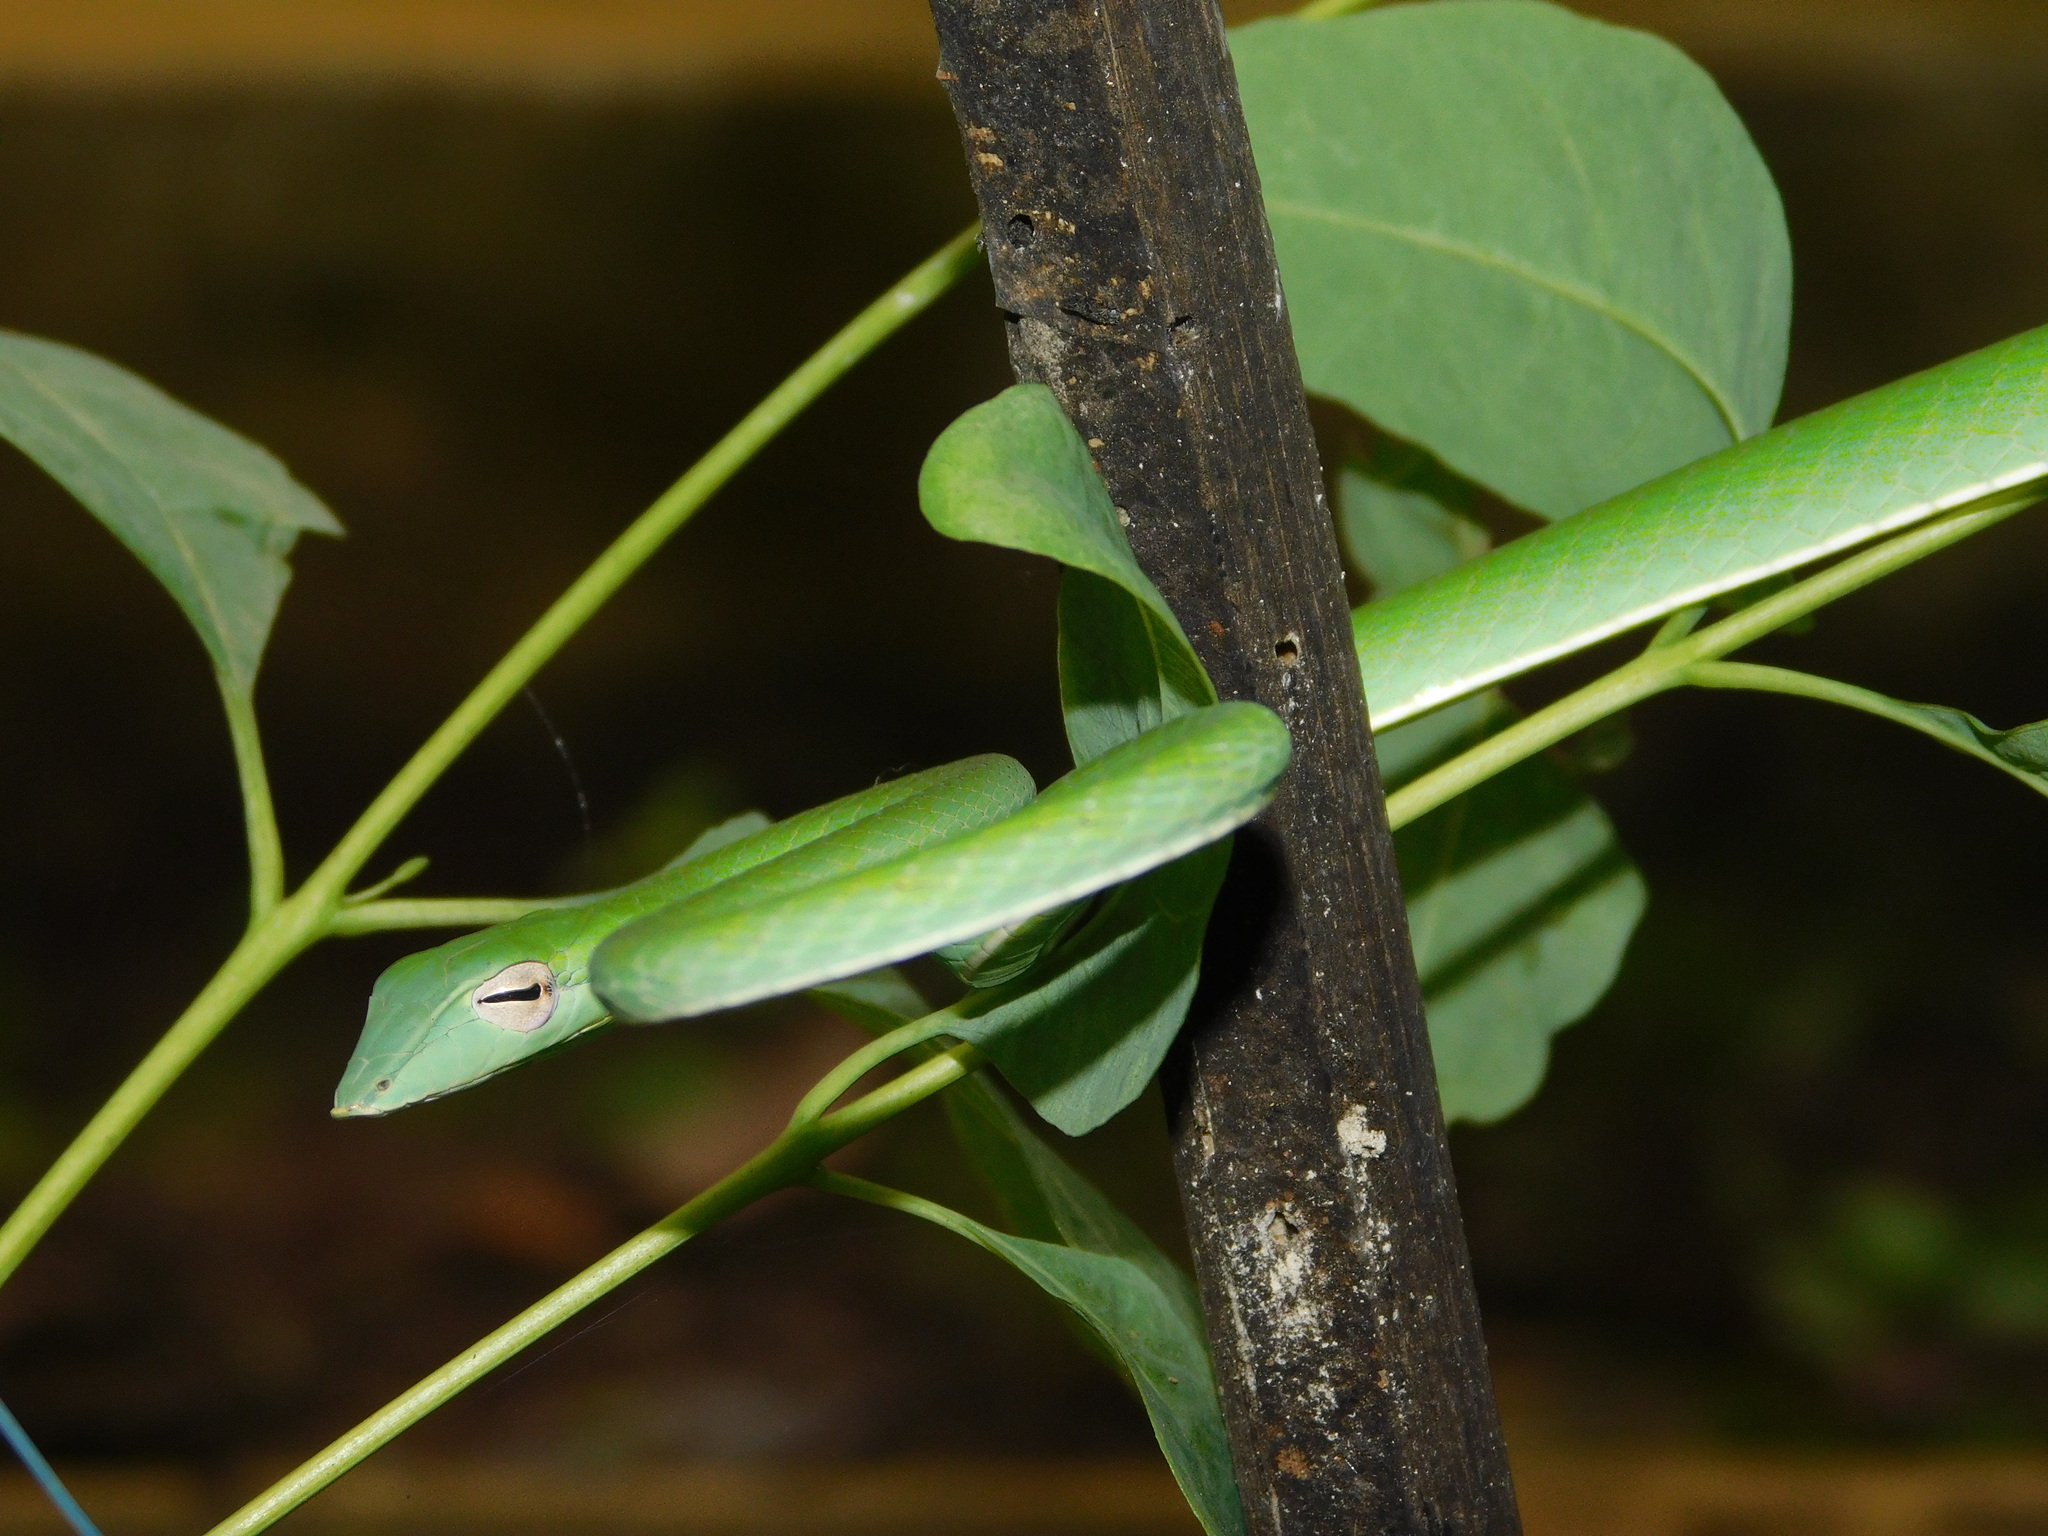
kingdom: Animalia
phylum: Chordata
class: Squamata
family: Colubridae
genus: Ahaetulla
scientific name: Ahaetulla prasina
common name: Oriental whip snake
